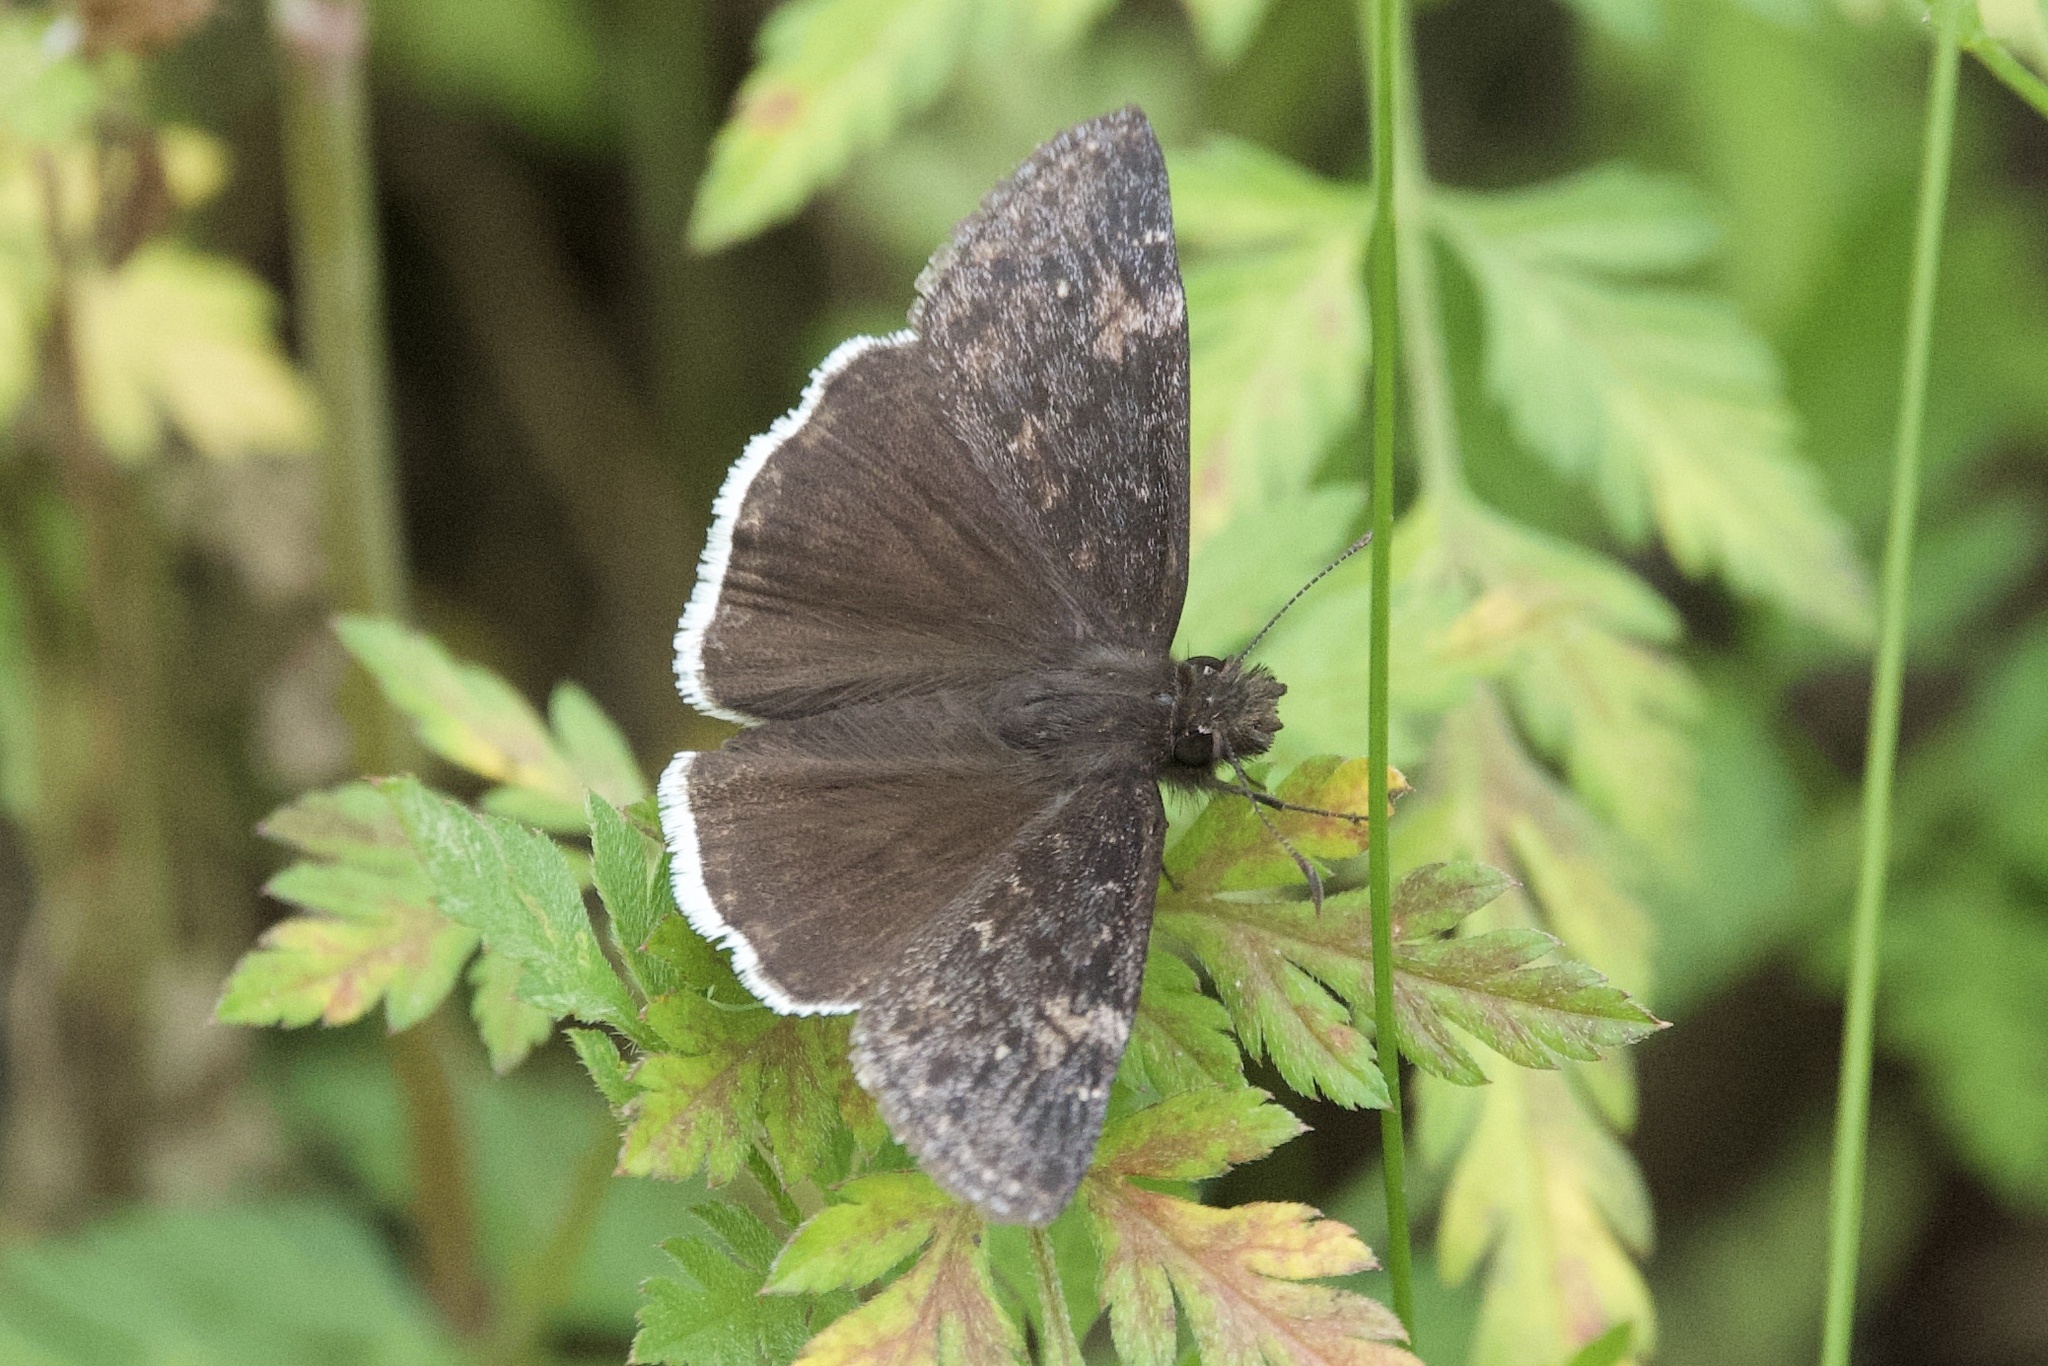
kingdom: Animalia
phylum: Arthropoda
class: Insecta
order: Lepidoptera
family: Hesperiidae
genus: Erynnis
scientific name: Erynnis funeralis
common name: Funereal duskywing
